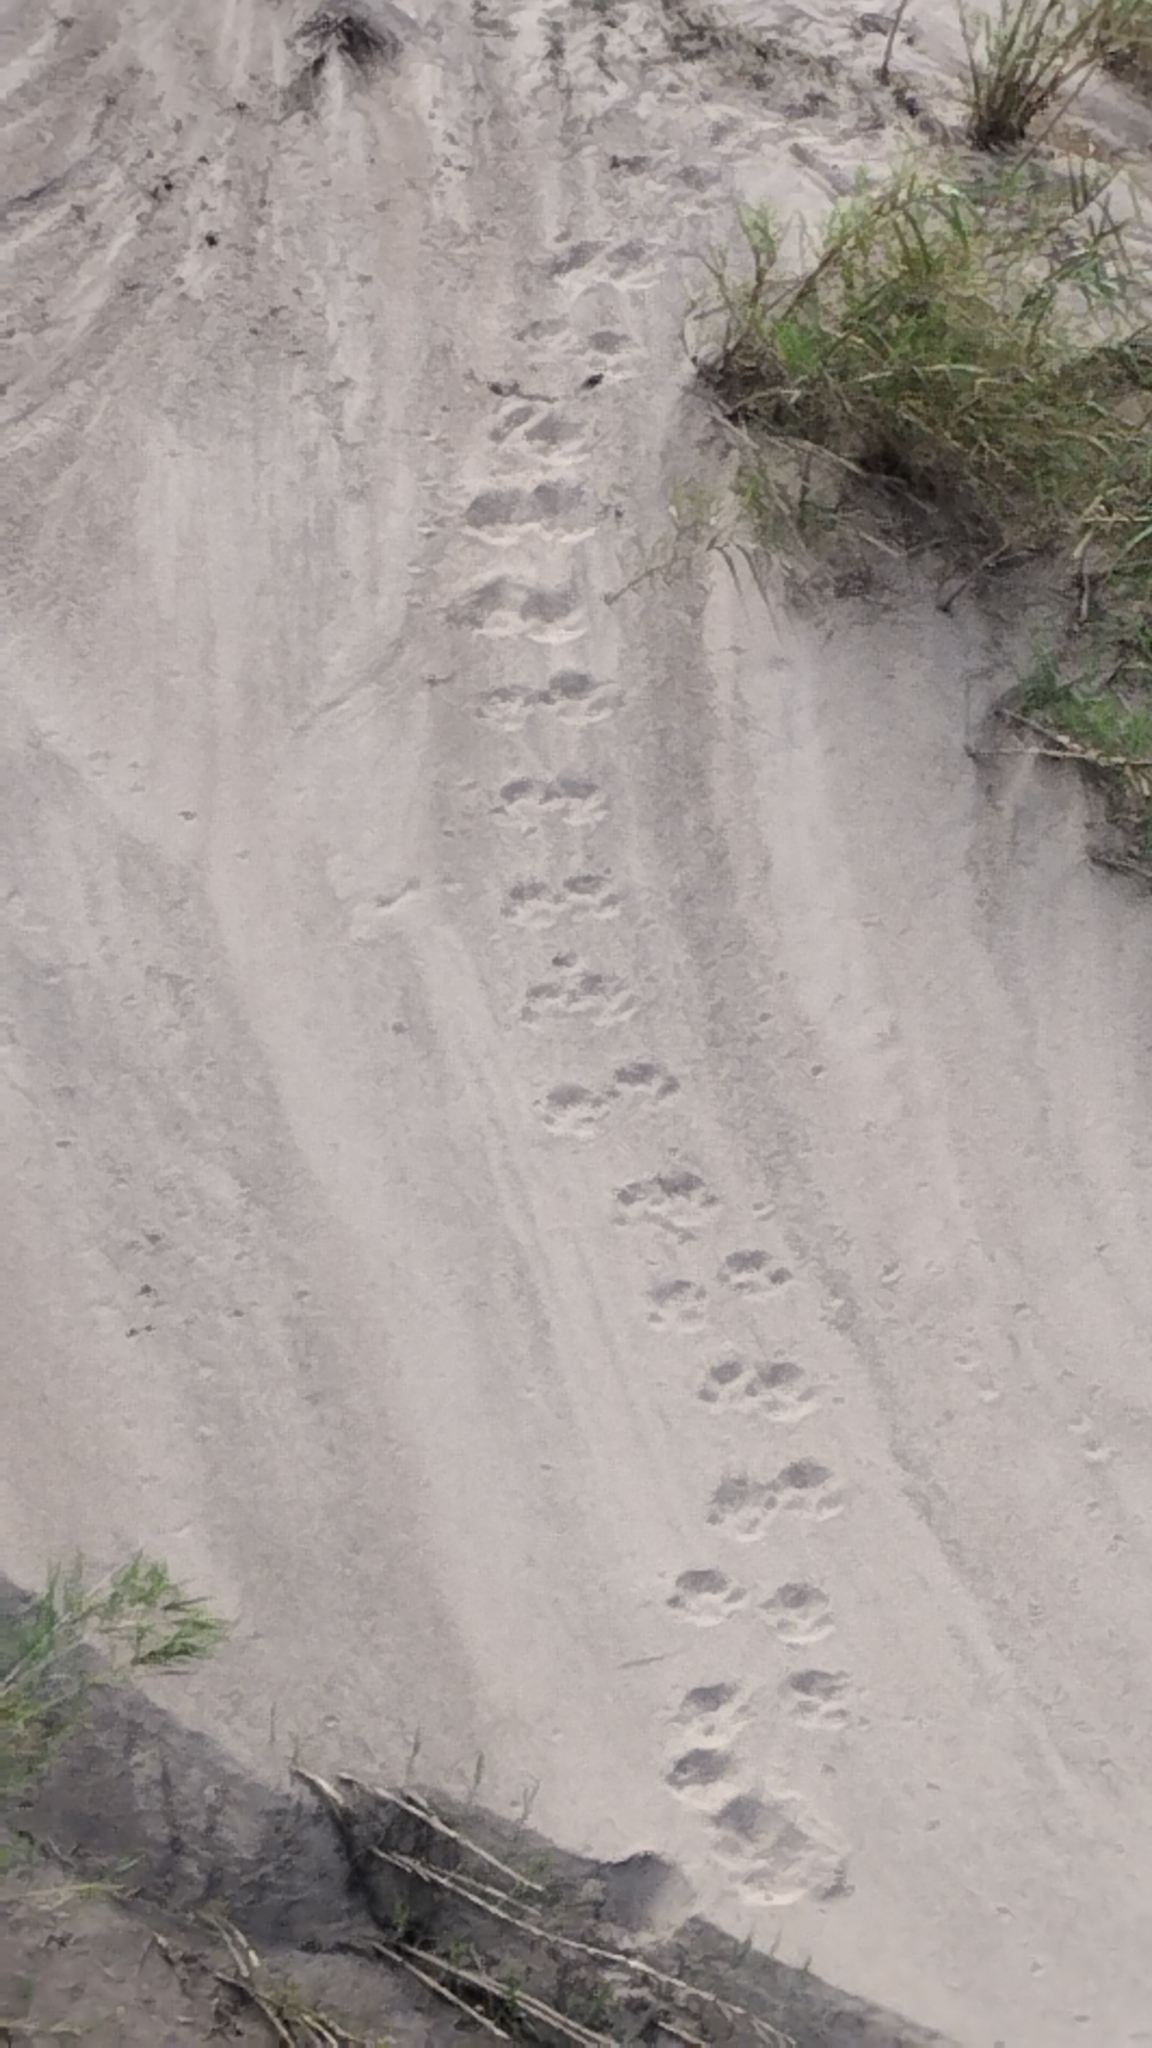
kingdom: Animalia
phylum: Chordata
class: Mammalia
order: Artiodactyla
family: Hippopotamidae
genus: Hippopotamus
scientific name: Hippopotamus amphibius
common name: Common hippopotamus
